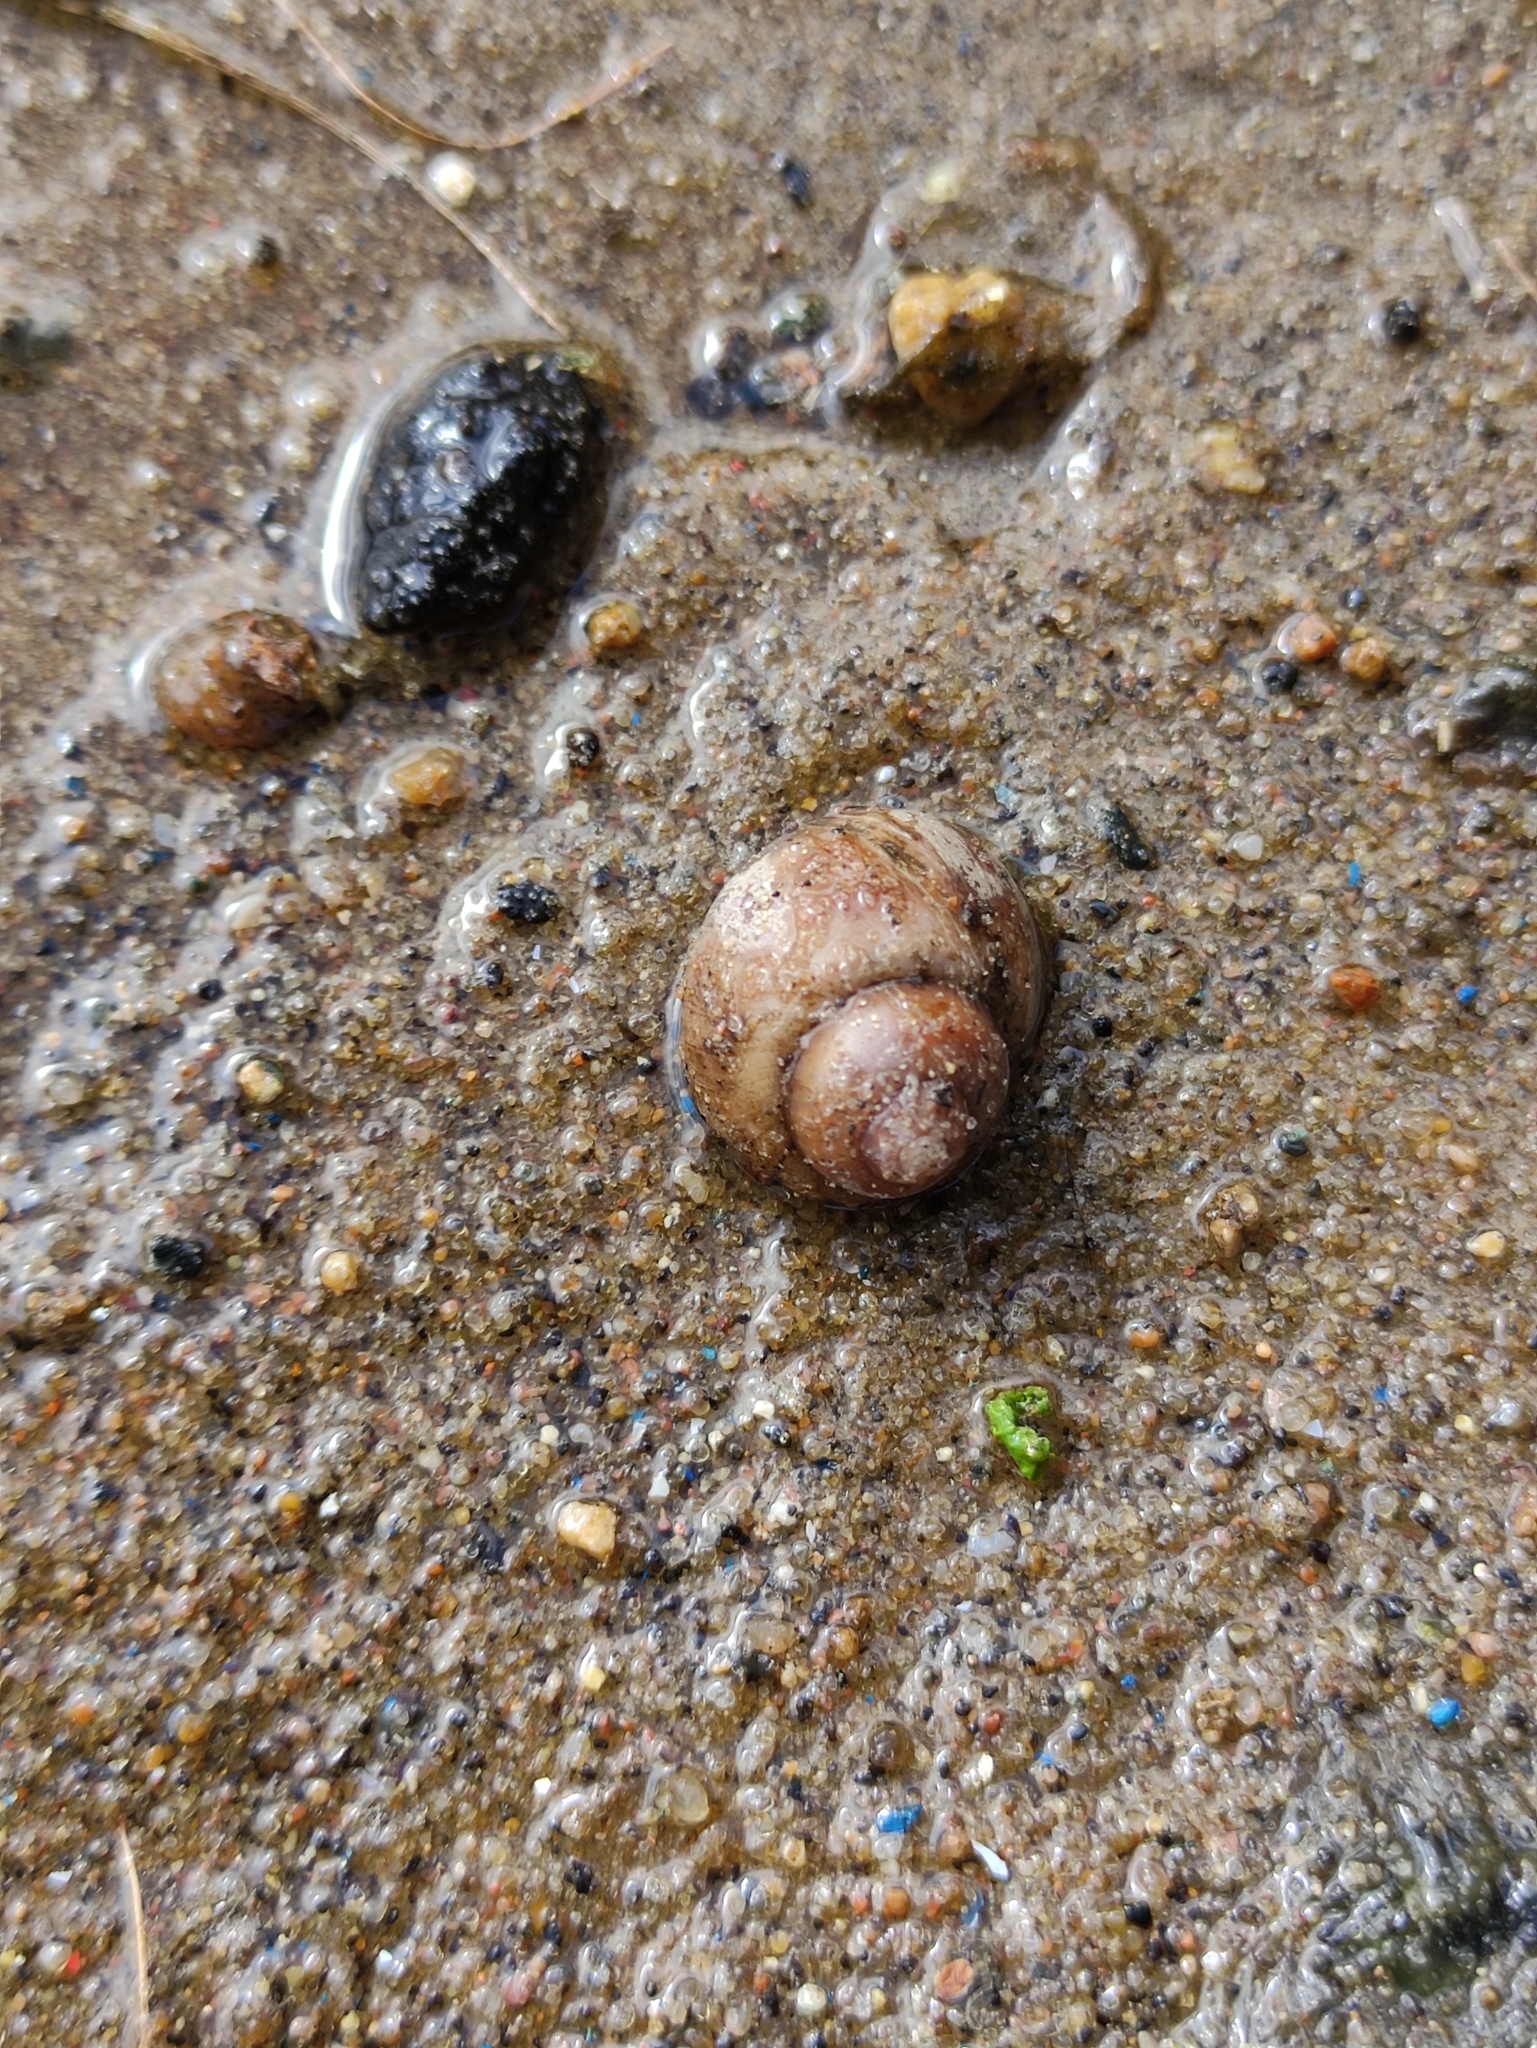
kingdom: Animalia
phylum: Mollusca
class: Gastropoda
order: Architaenioglossa
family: Viviparidae
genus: Viviparus
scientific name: Viviparus viviparus
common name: River snail
